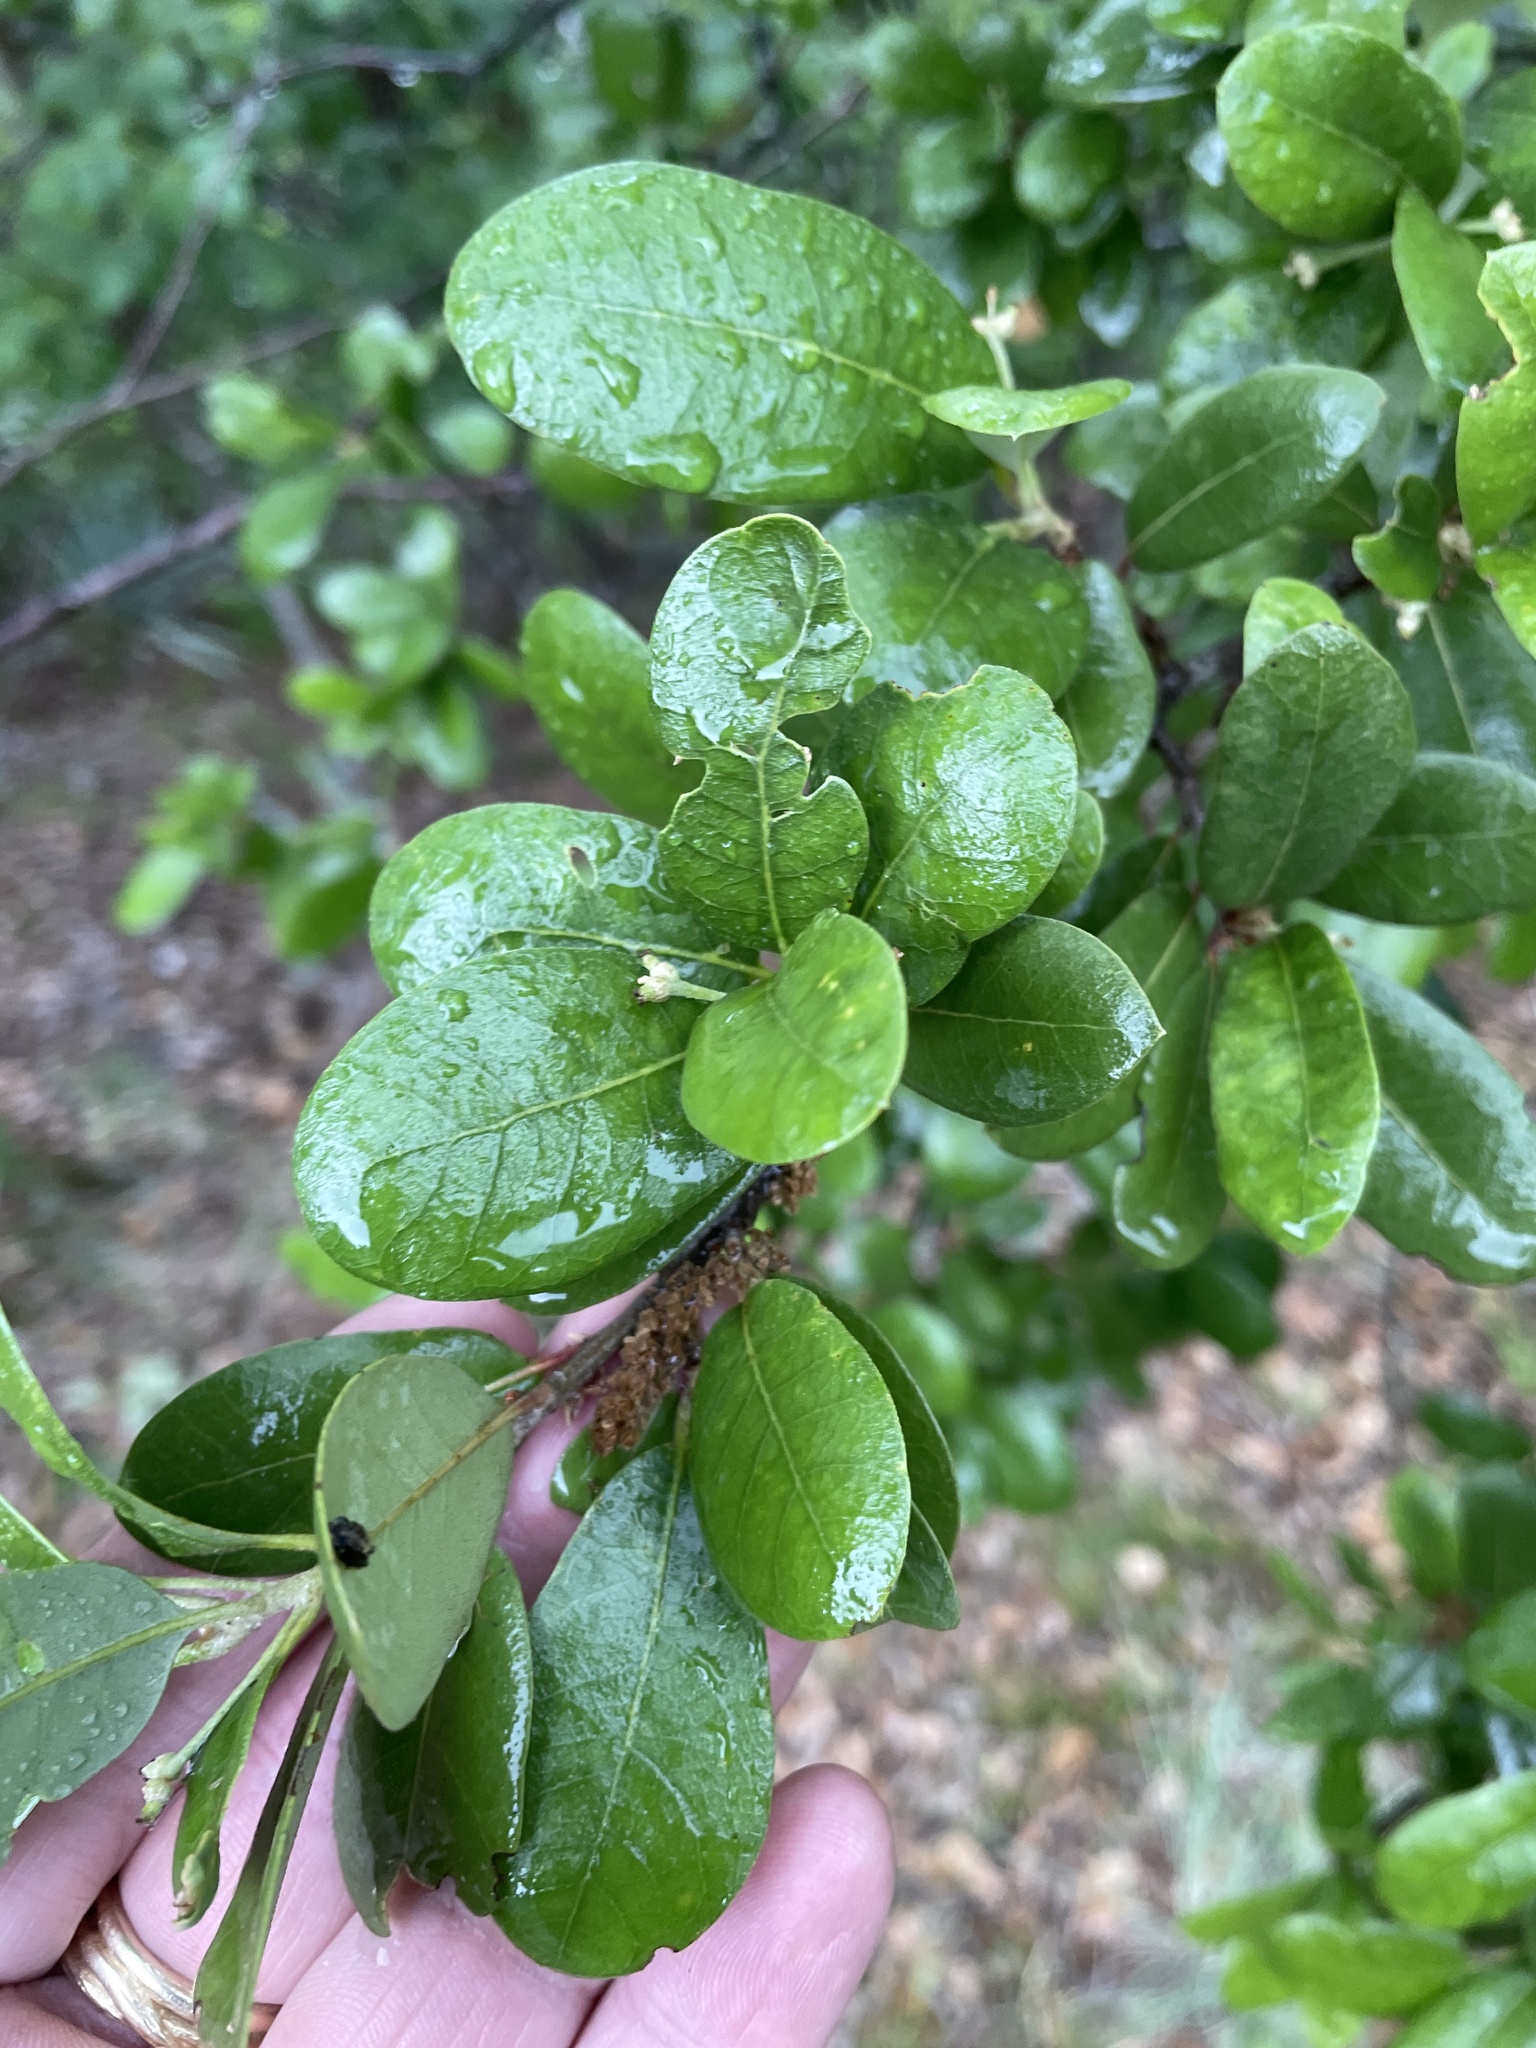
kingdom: Plantae
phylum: Tracheophyta
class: Magnoliopsida
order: Fagales
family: Fagaceae
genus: Quercus
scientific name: Quercus fusiformis
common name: Texas live oak
